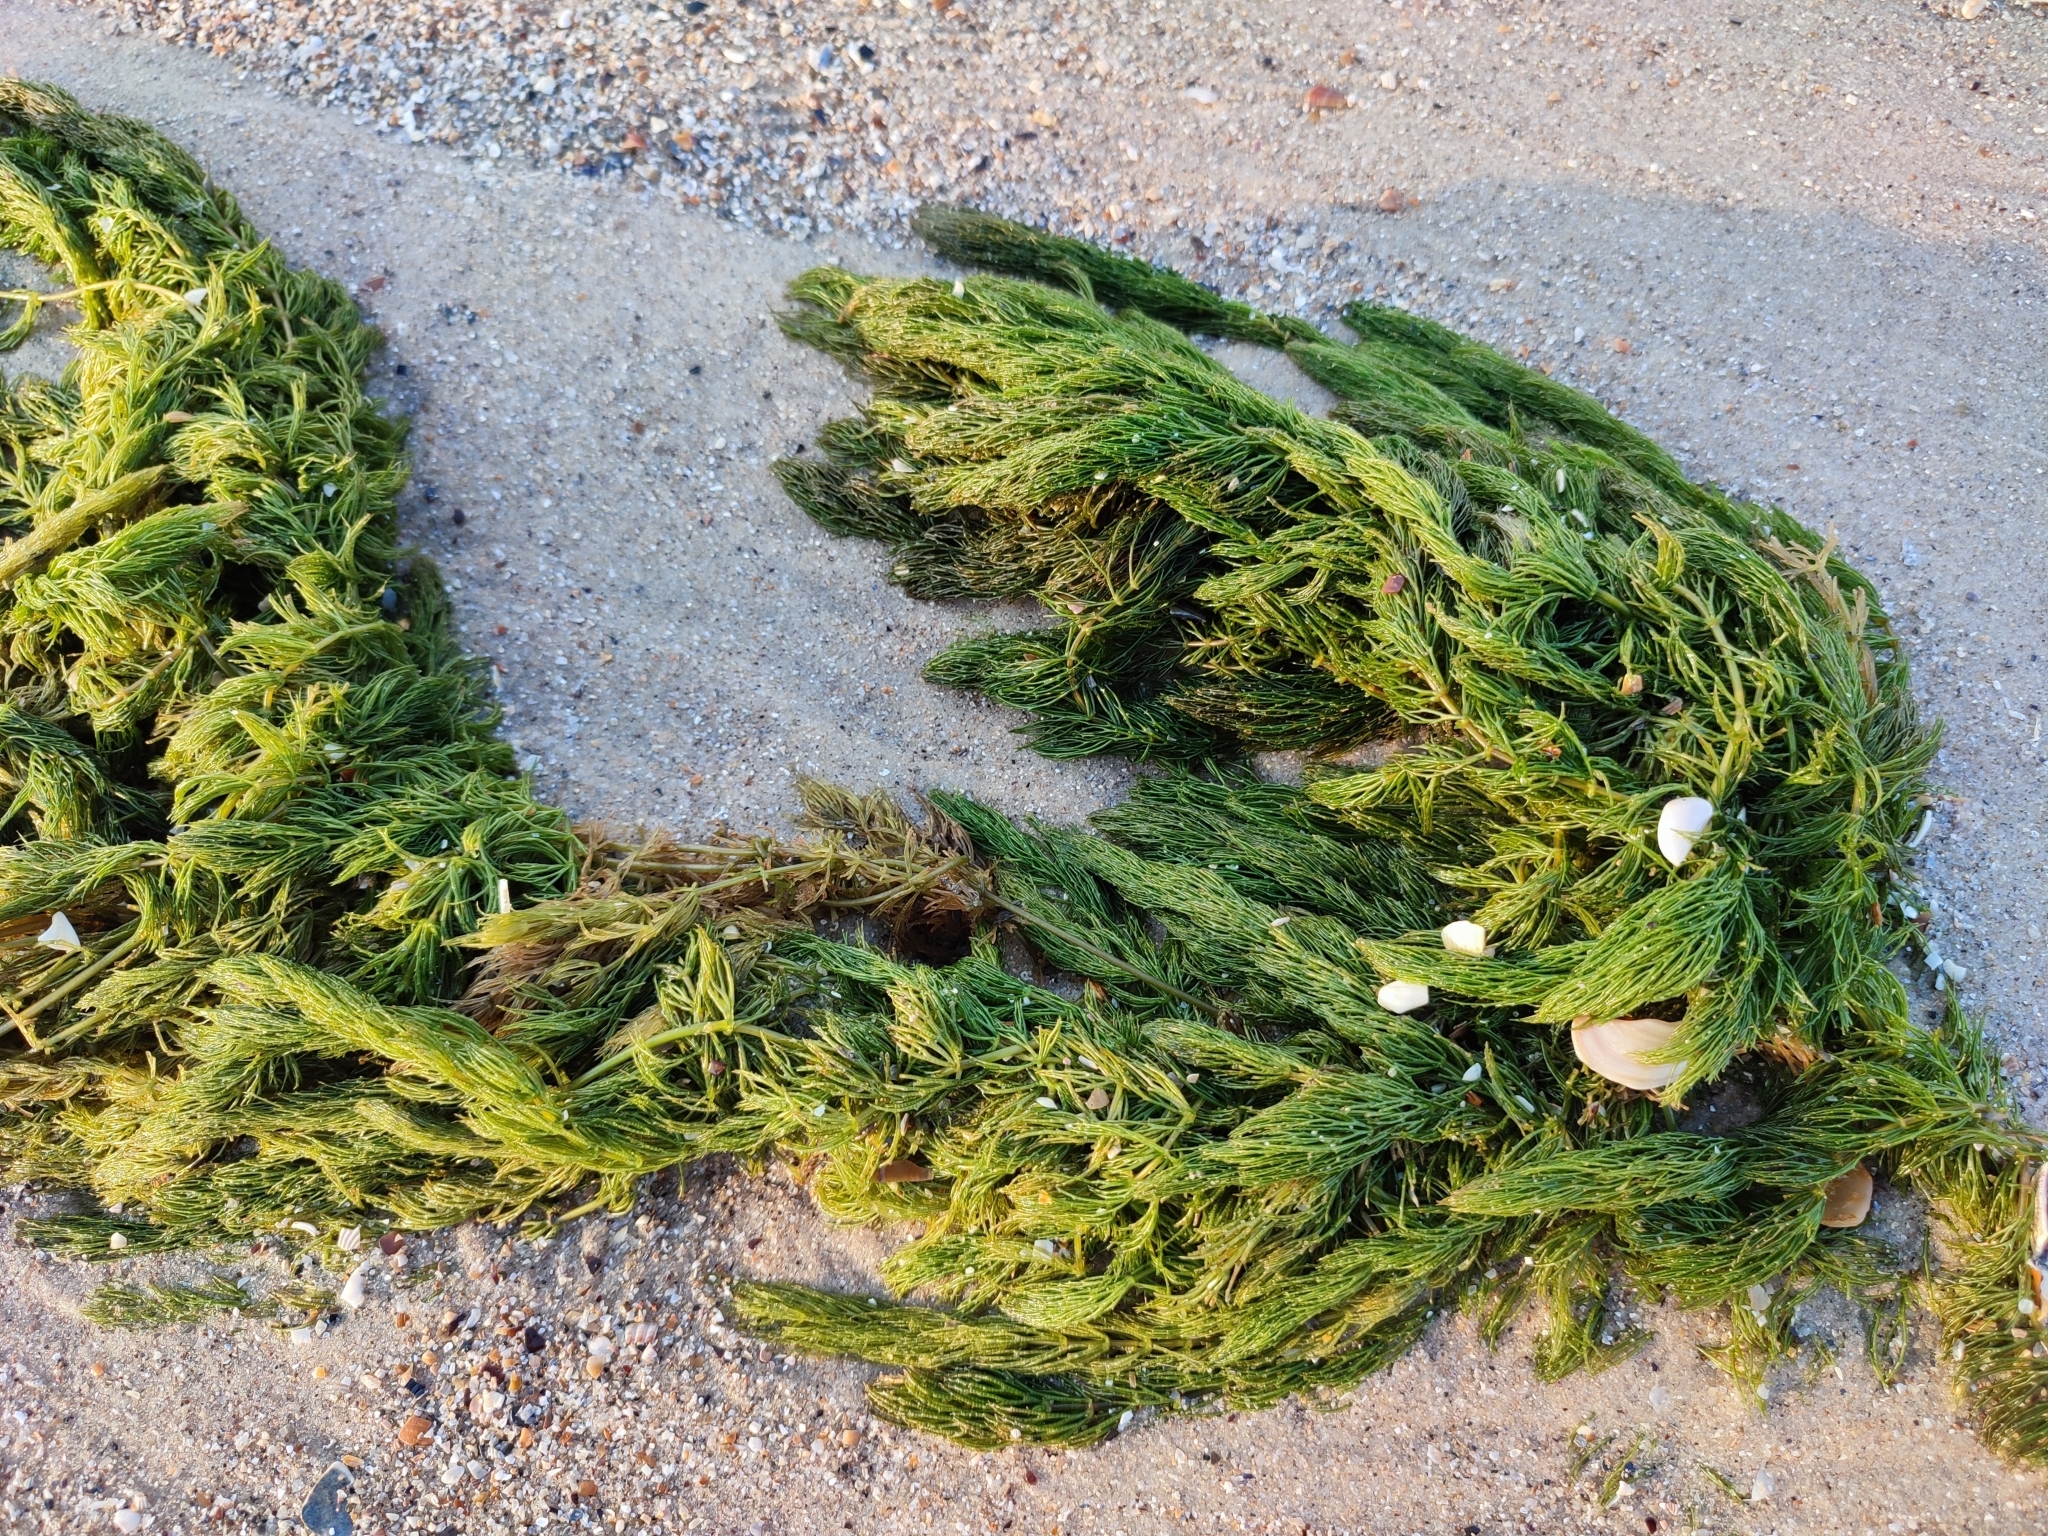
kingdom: Plantae
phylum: Tracheophyta
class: Magnoliopsida
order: Ceratophyllales
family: Ceratophyllaceae
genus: Ceratophyllum
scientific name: Ceratophyllum demersum
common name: Rigid hornwort
